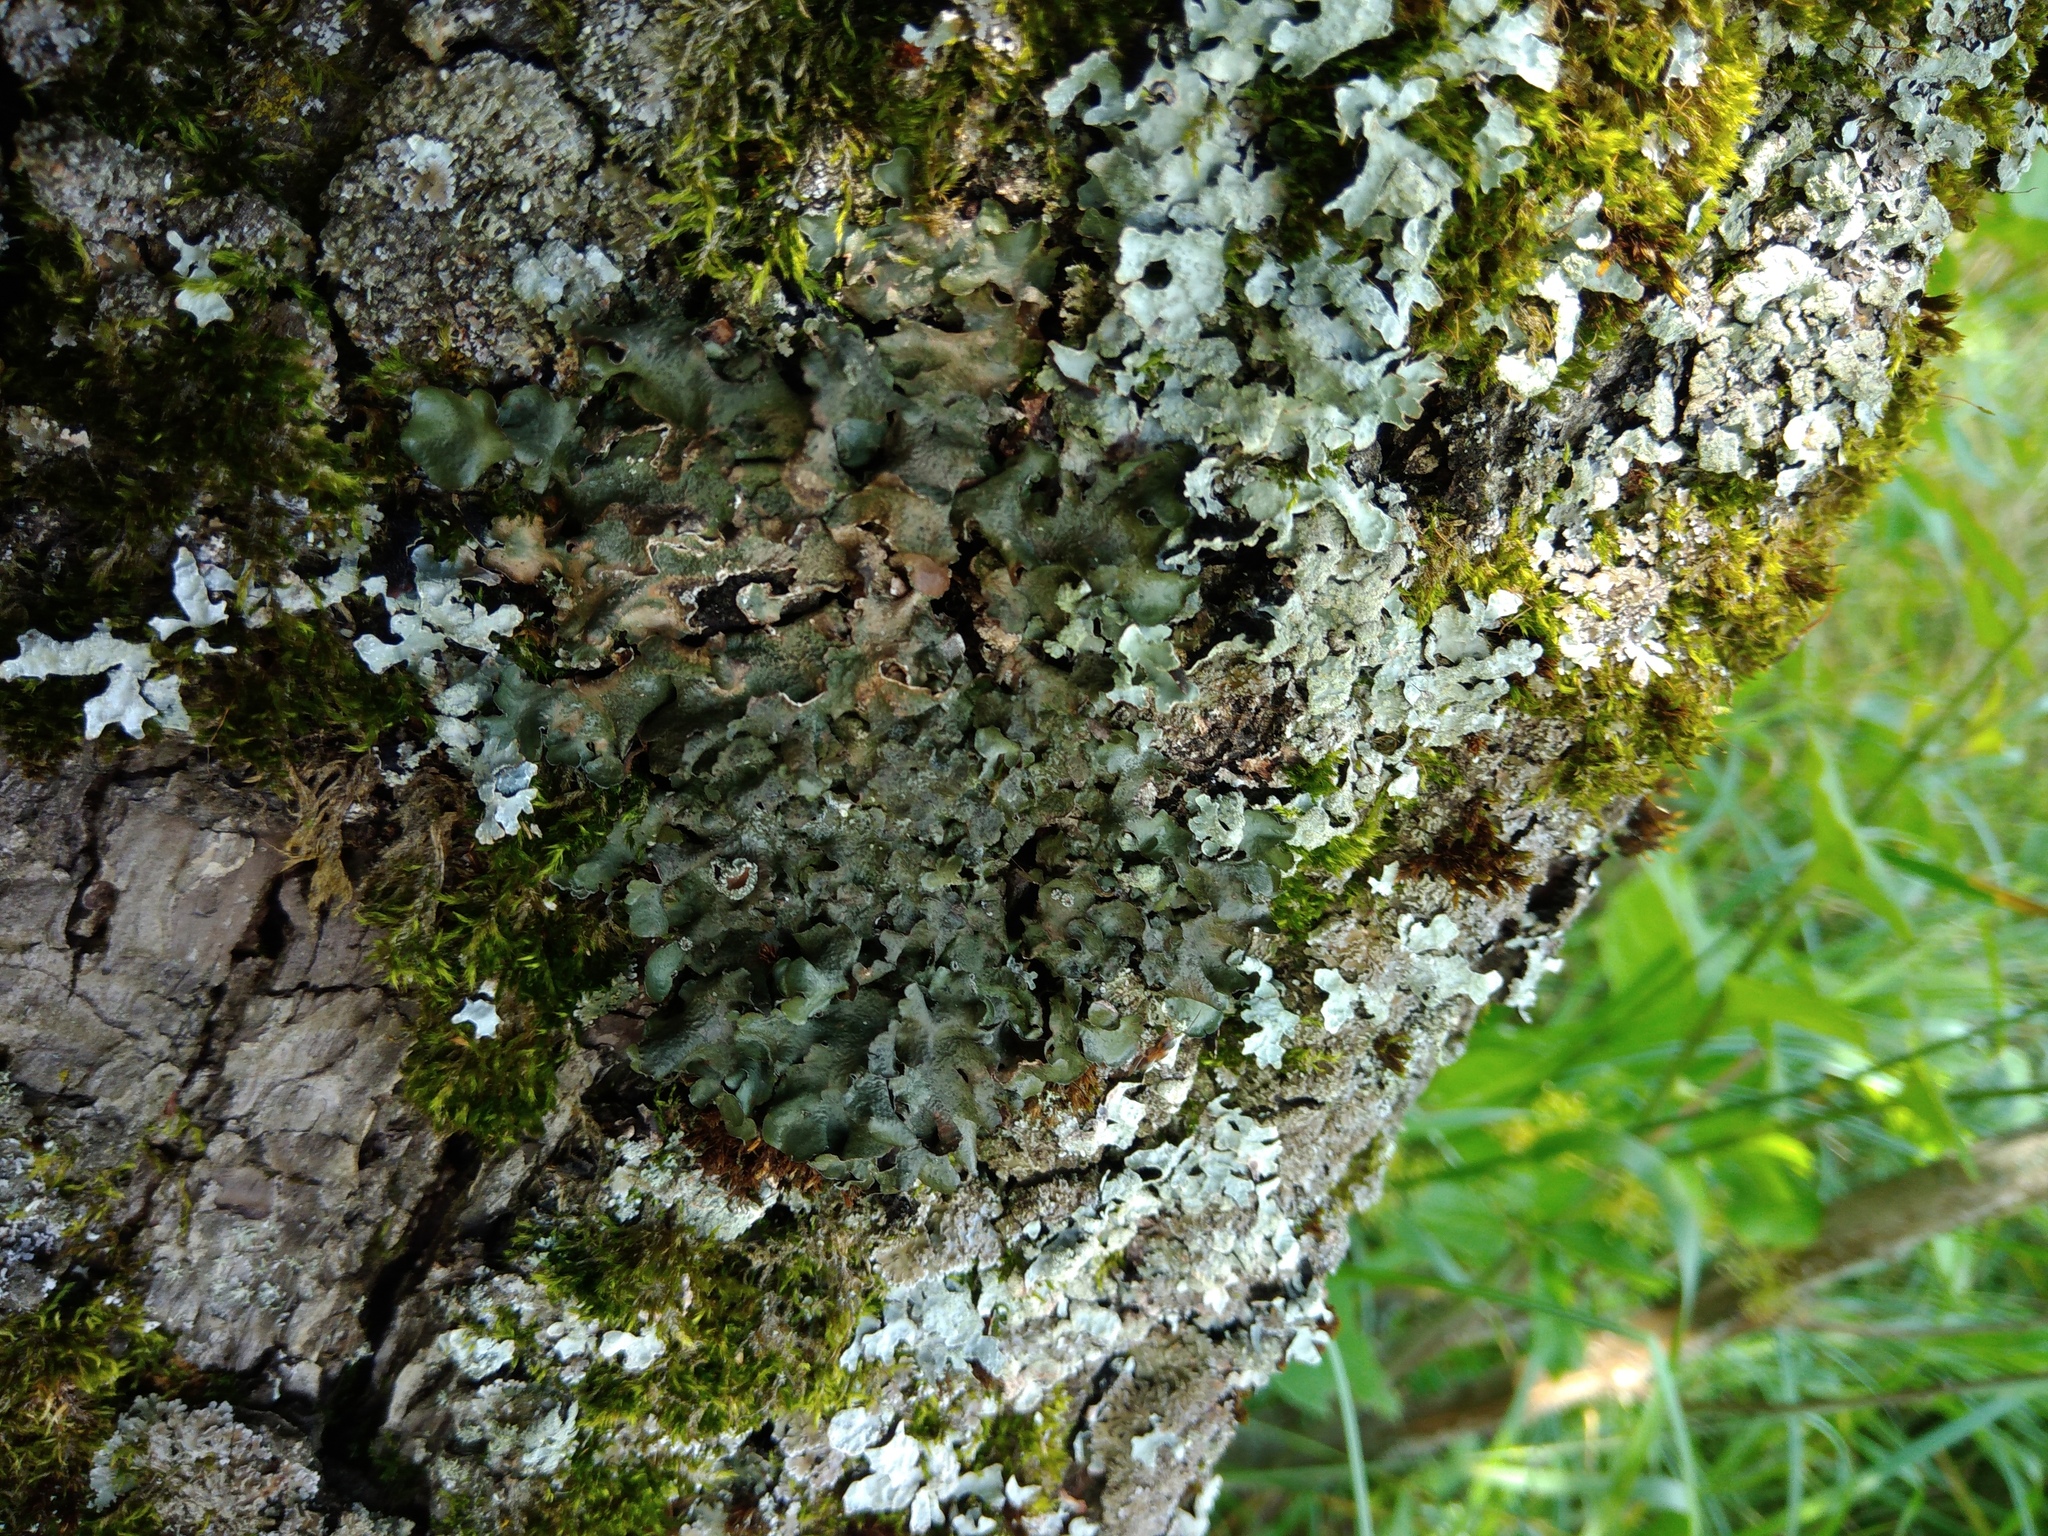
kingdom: Fungi
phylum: Ascomycota
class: Lecanoromycetes
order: Lecanorales
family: Parmeliaceae
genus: Pleurosticta
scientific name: Pleurosticta acetabulum
